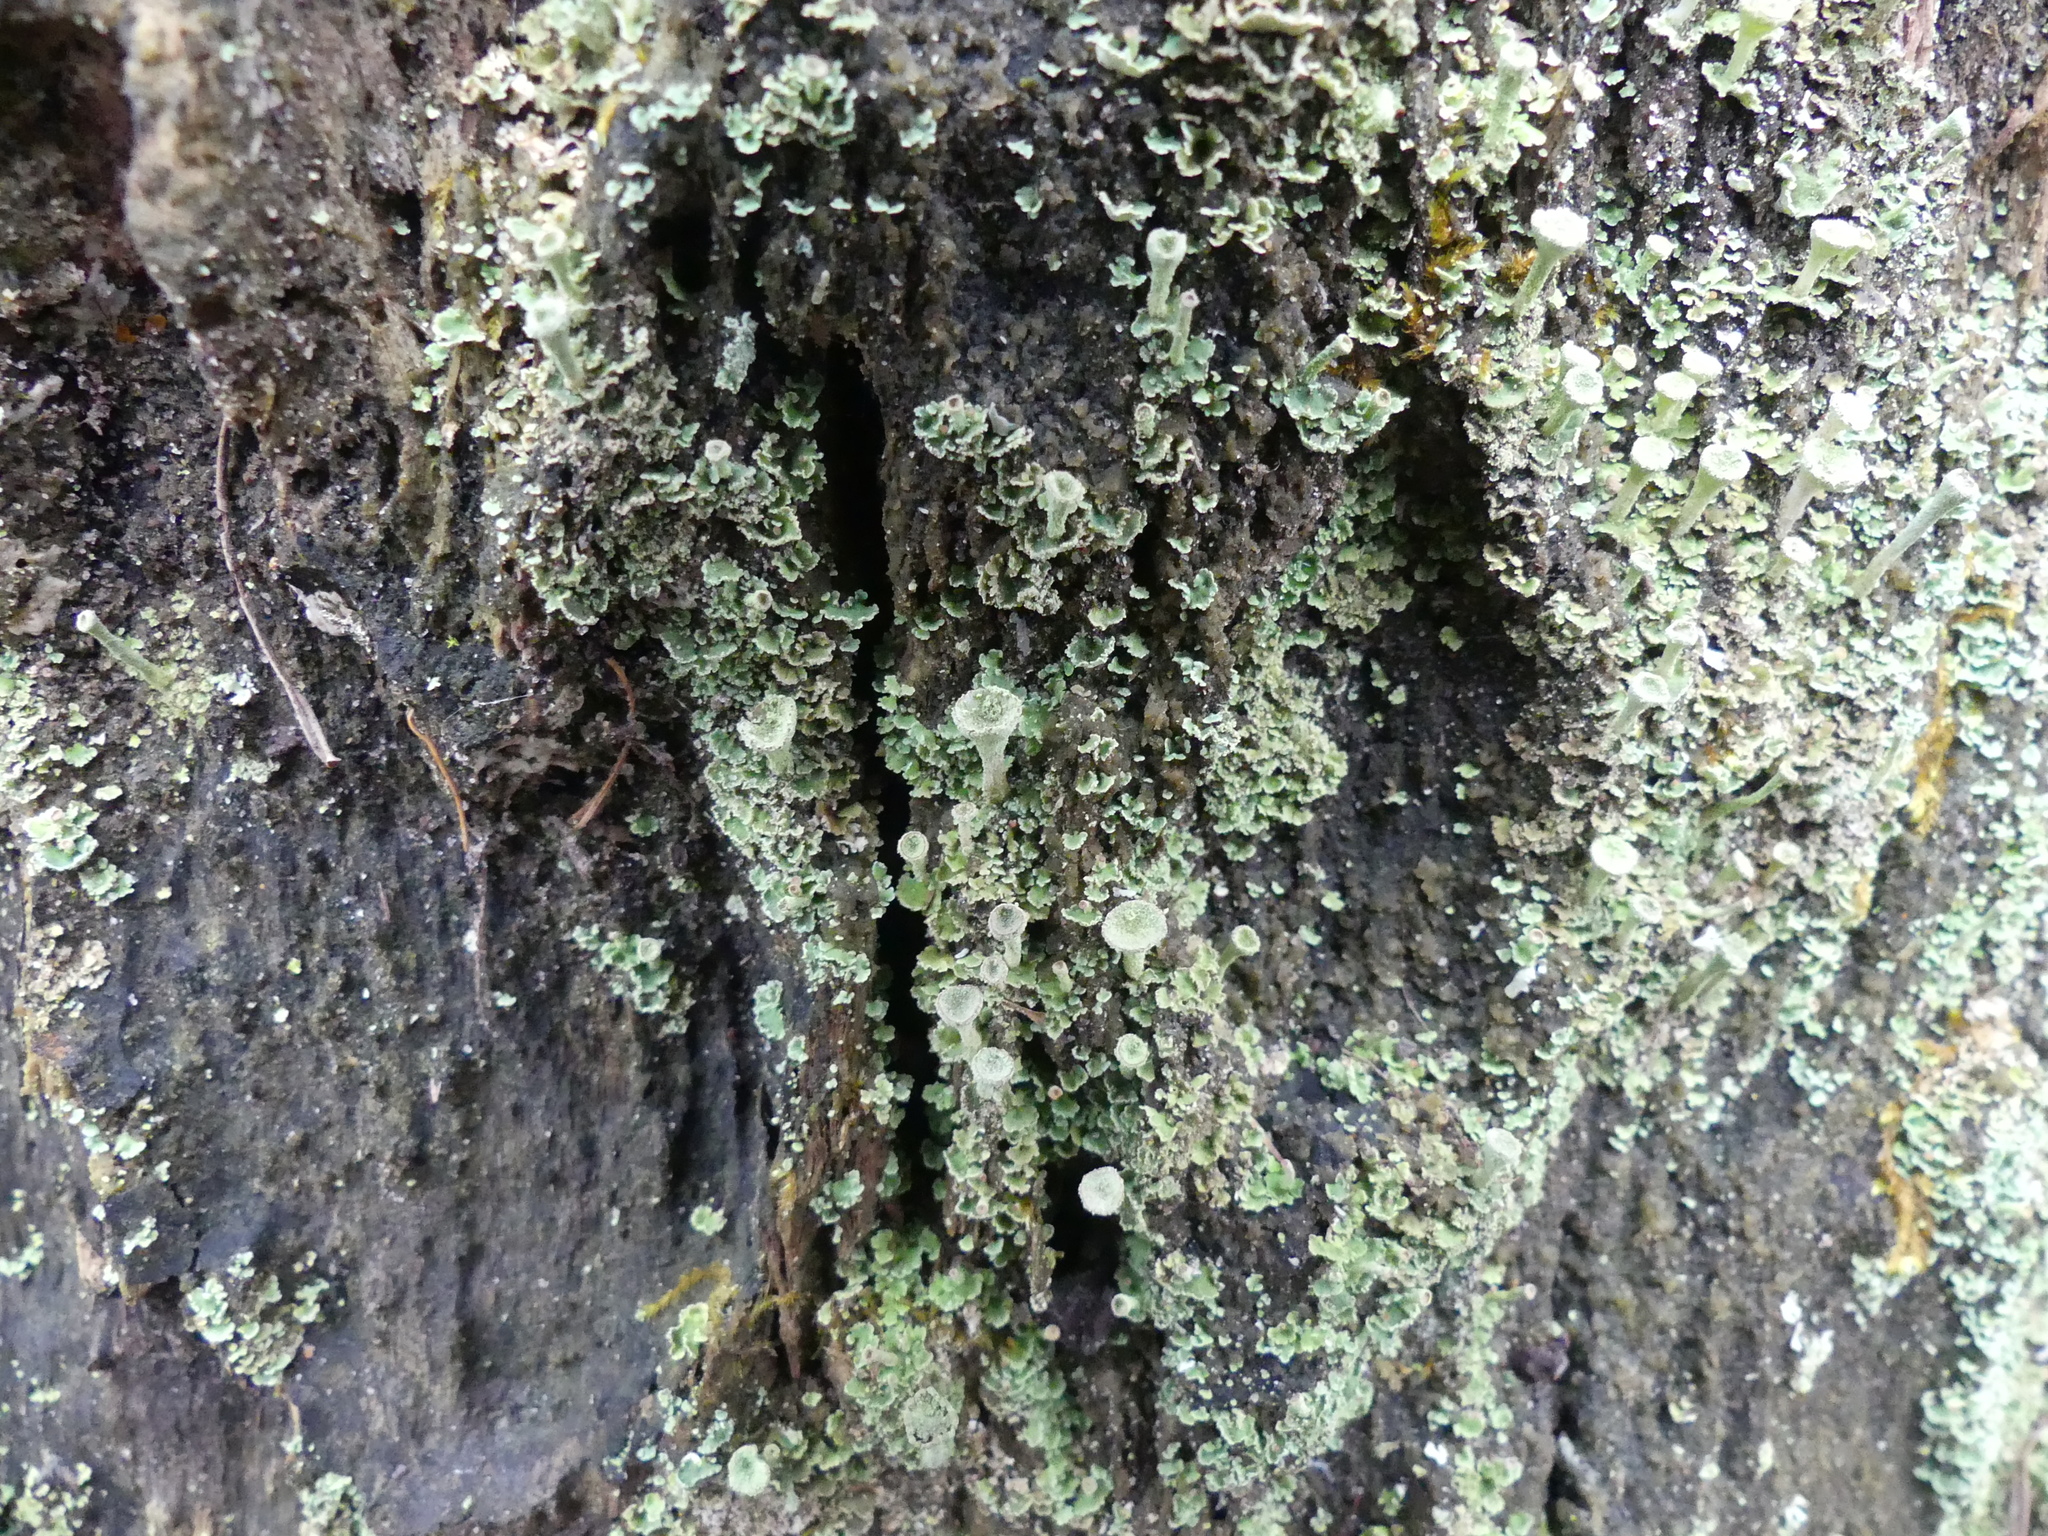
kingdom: Fungi
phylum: Ascomycota
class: Lecanoromycetes
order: Lecanorales
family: Cladoniaceae
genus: Cladonia
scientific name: Cladonia
